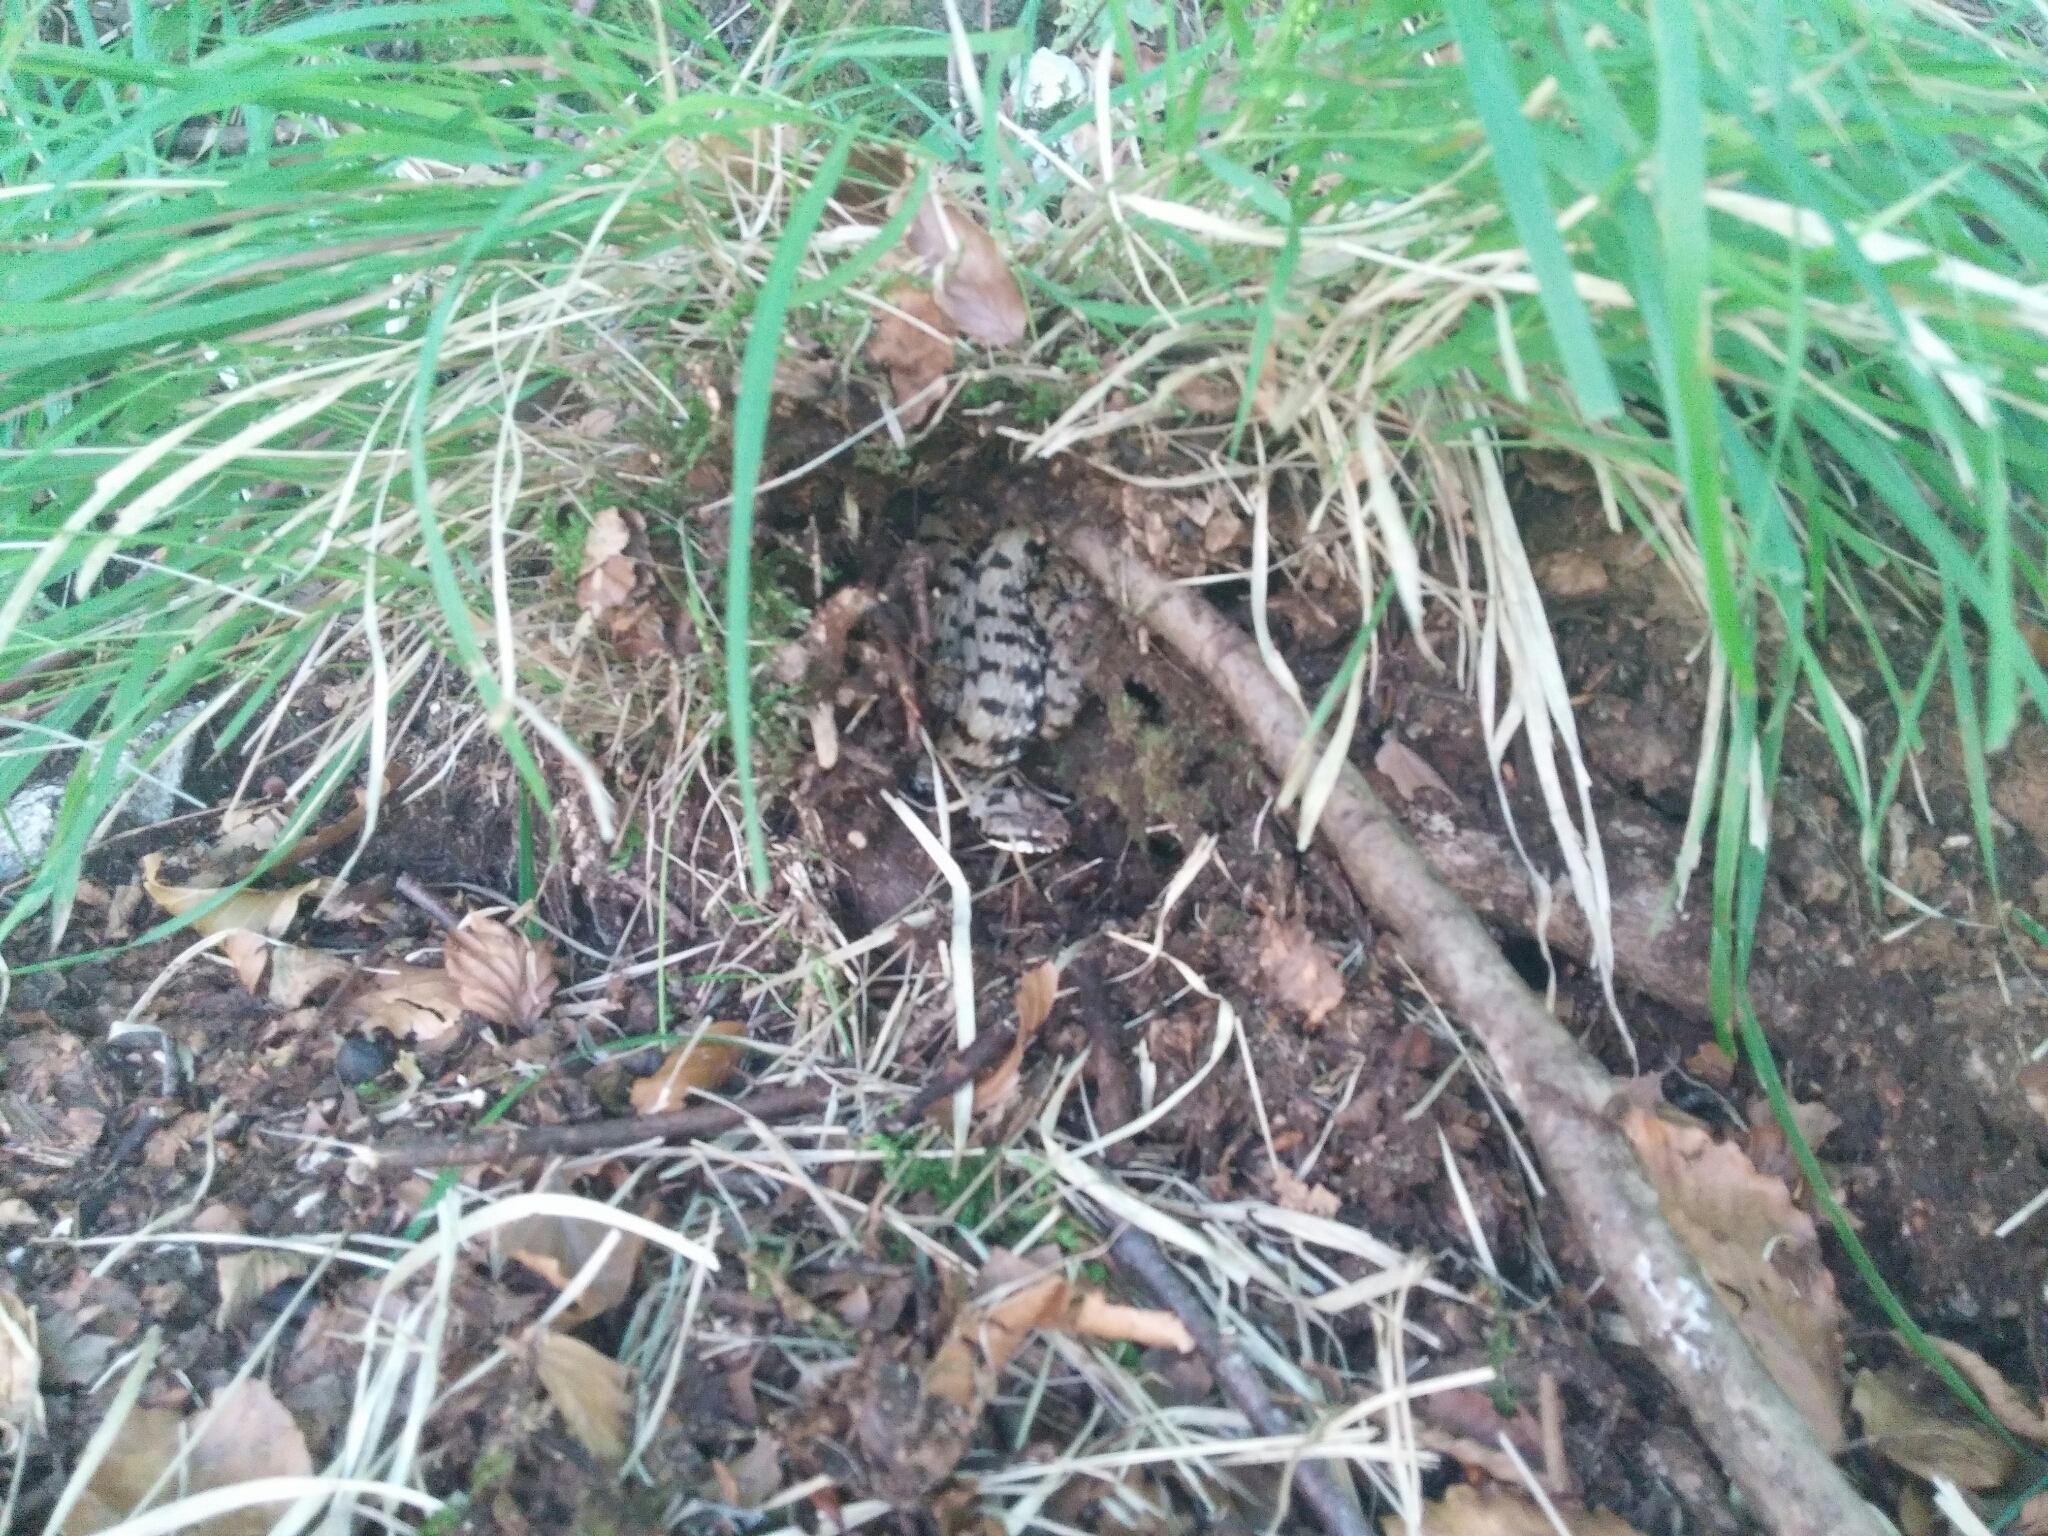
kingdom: Animalia
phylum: Chordata
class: Squamata
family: Viperidae
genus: Vipera
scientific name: Vipera aspis
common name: Asp viper
